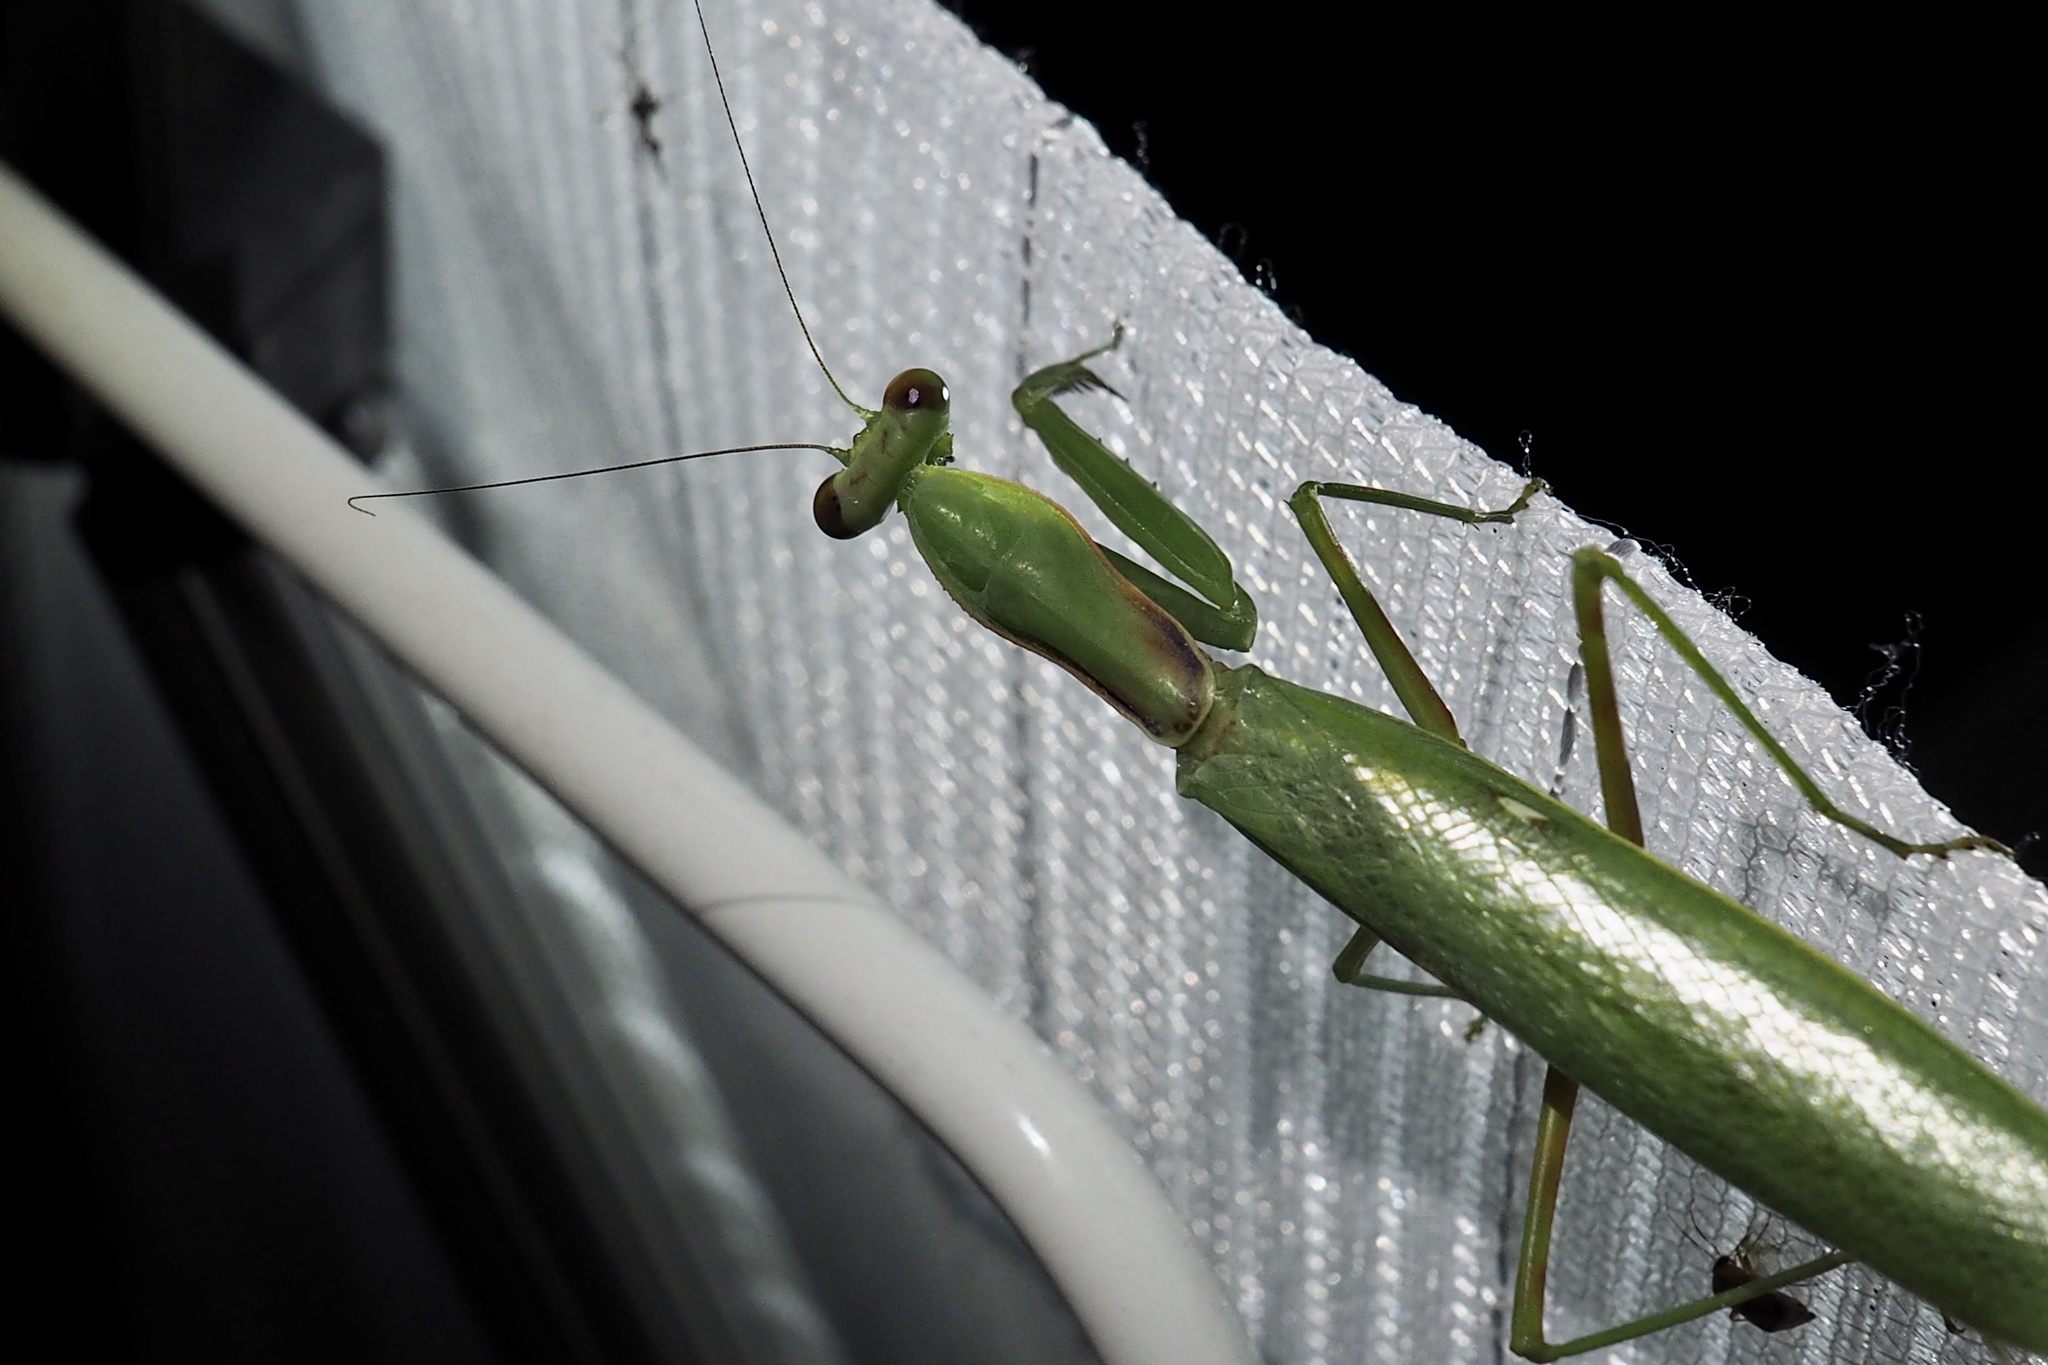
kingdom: Animalia
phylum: Arthropoda
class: Insecta
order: Mantodea
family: Mantidae
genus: Hierodula
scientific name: Hierodula patellifera
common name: Asian mantis
